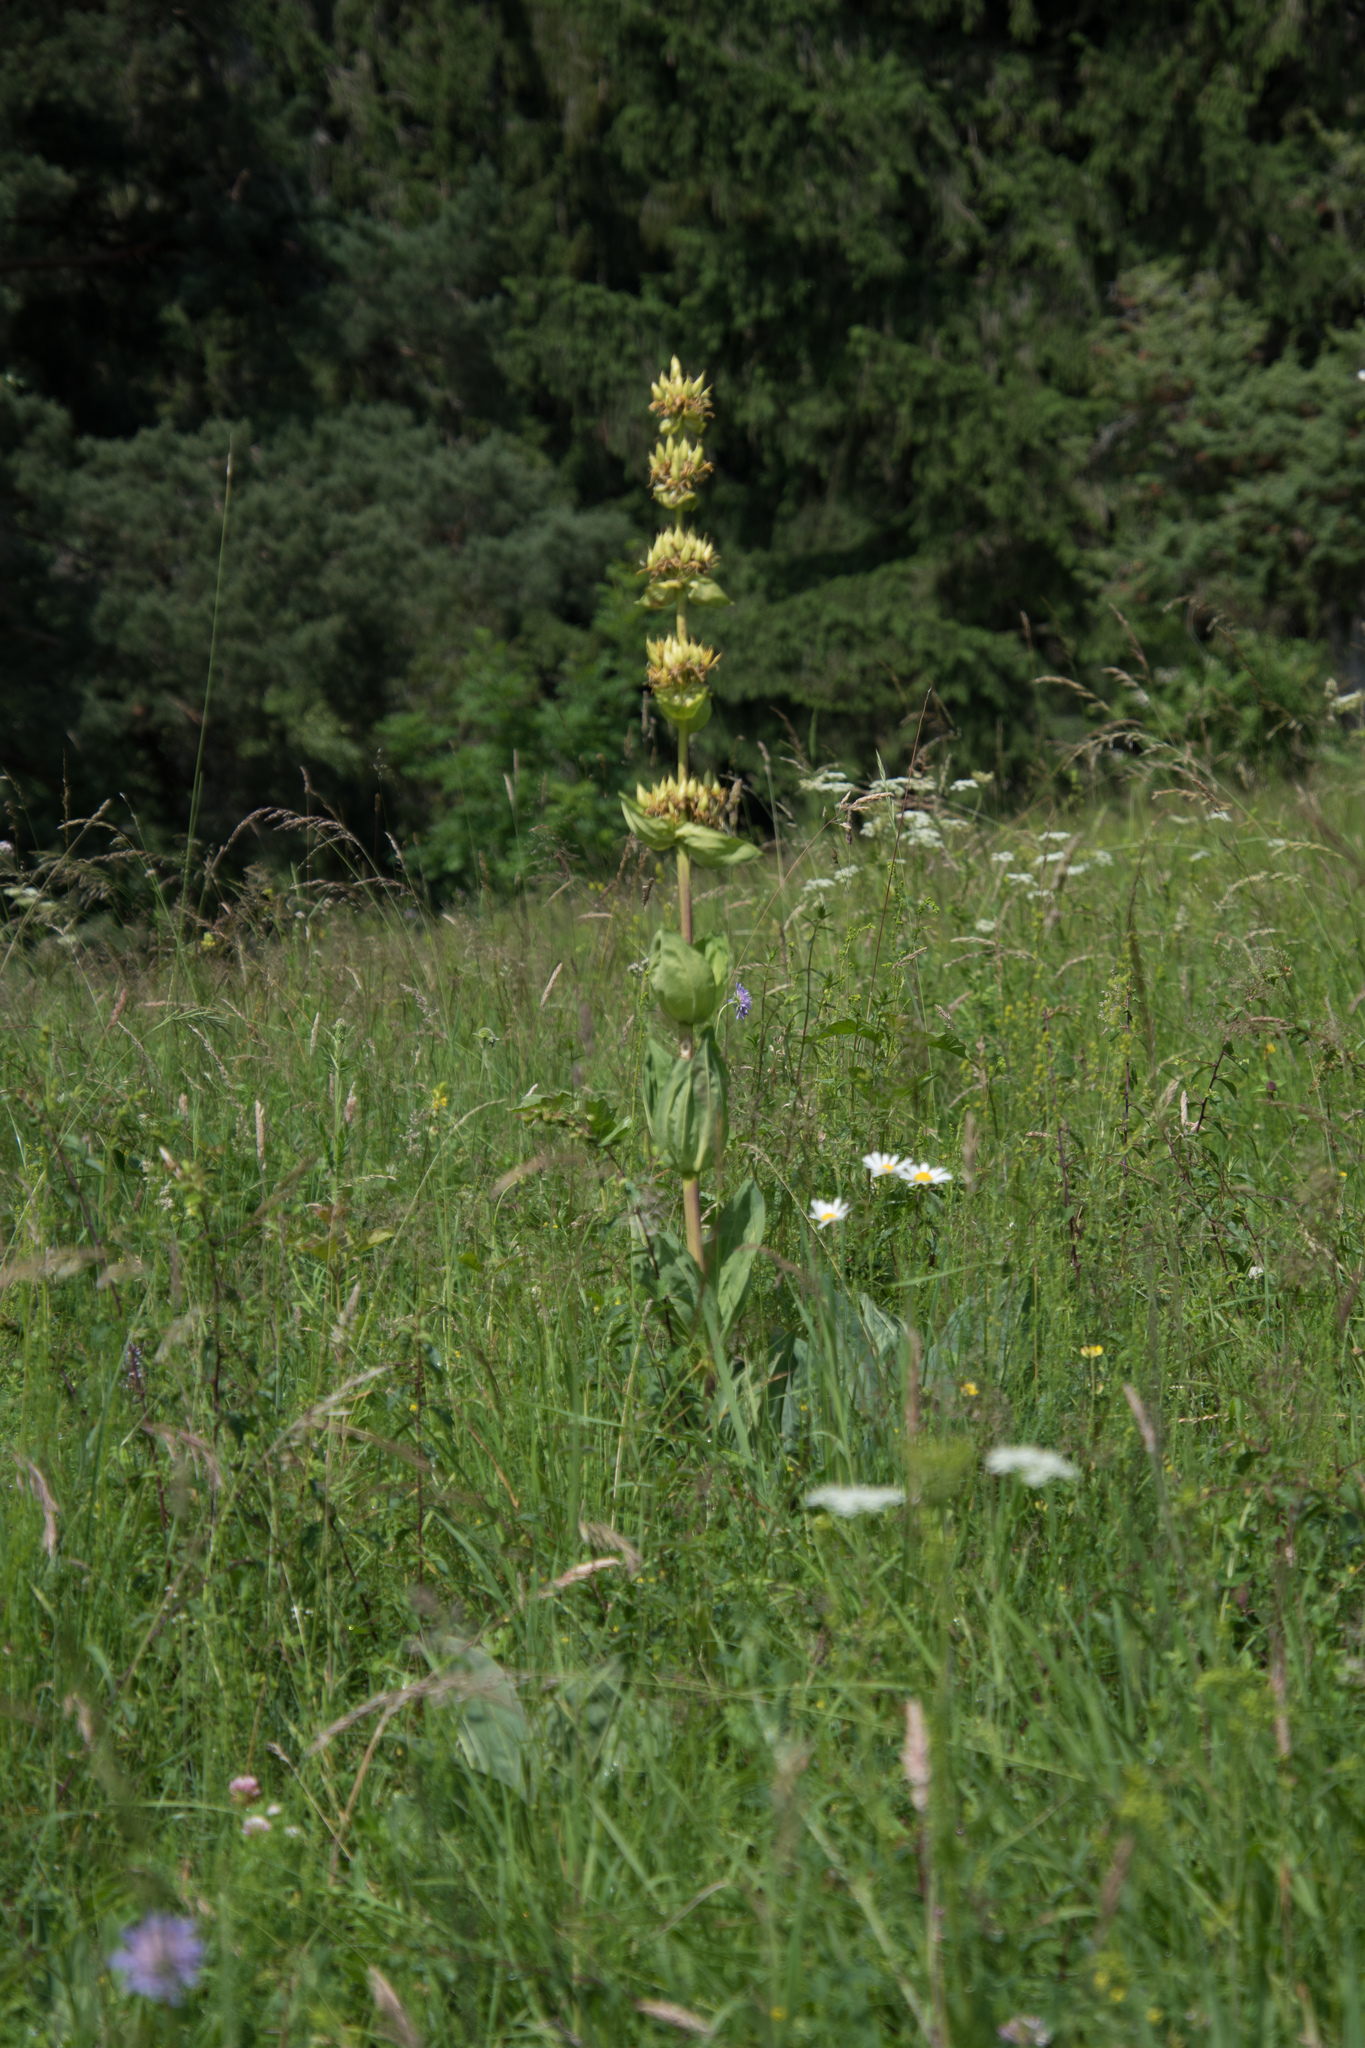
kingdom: Plantae
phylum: Tracheophyta
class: Magnoliopsida
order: Gentianales
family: Gentianaceae
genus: Gentiana
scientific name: Gentiana lutea
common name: Great yellow gentian
